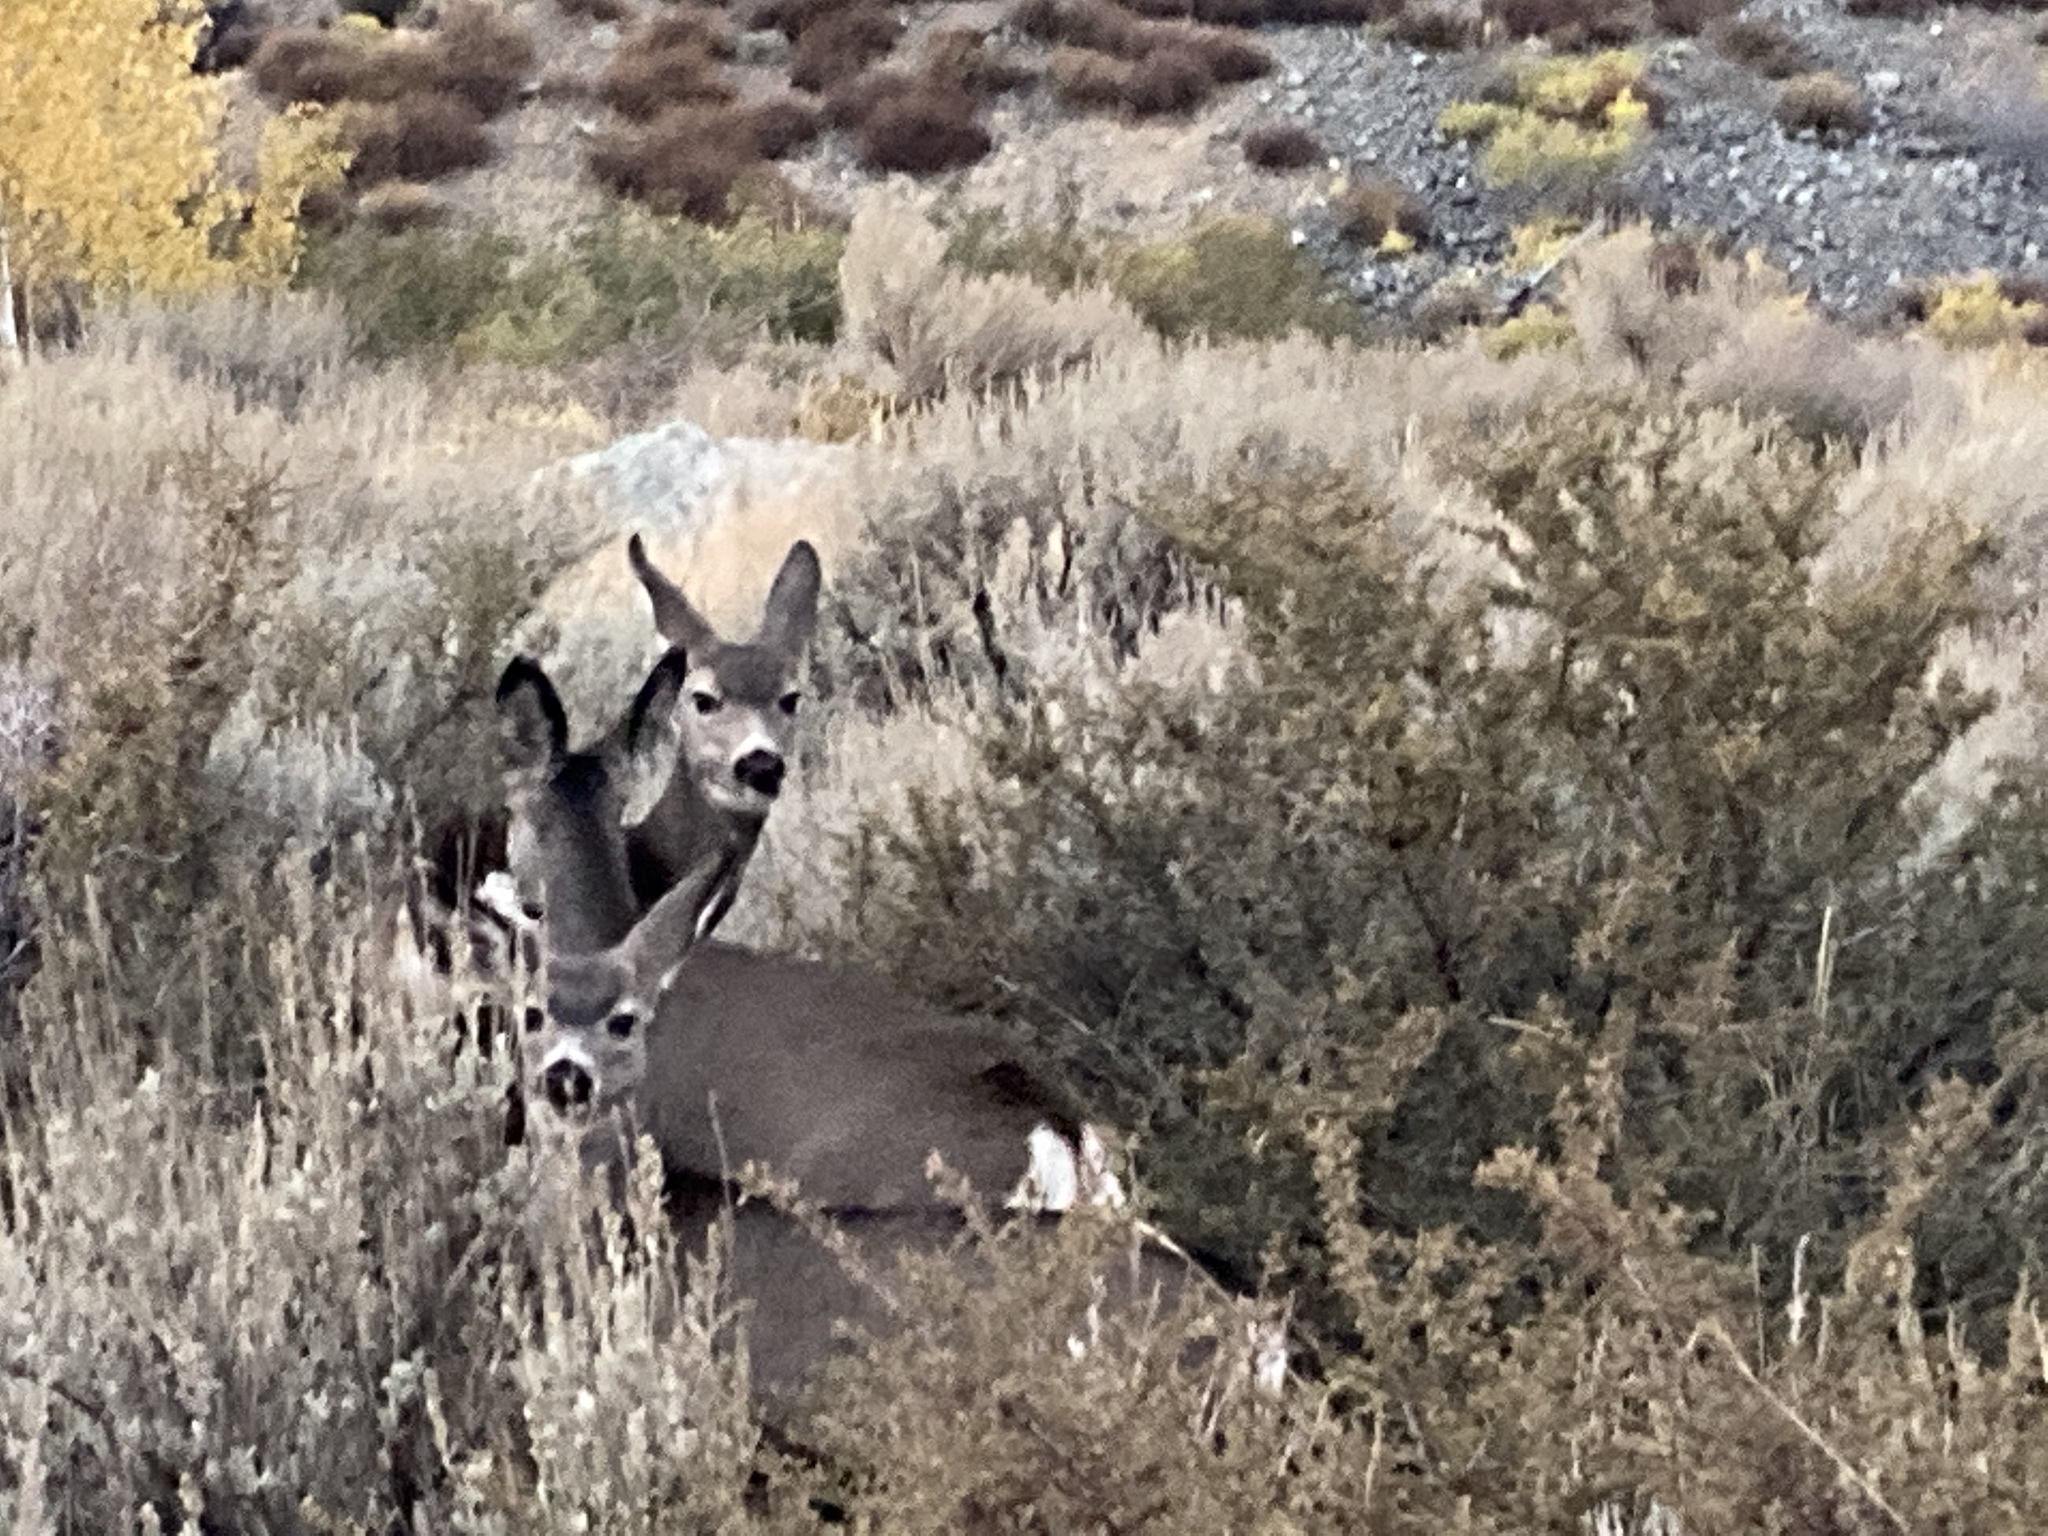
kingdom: Animalia
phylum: Chordata
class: Mammalia
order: Artiodactyla
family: Cervidae
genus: Odocoileus
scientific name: Odocoileus hemionus
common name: Mule deer
